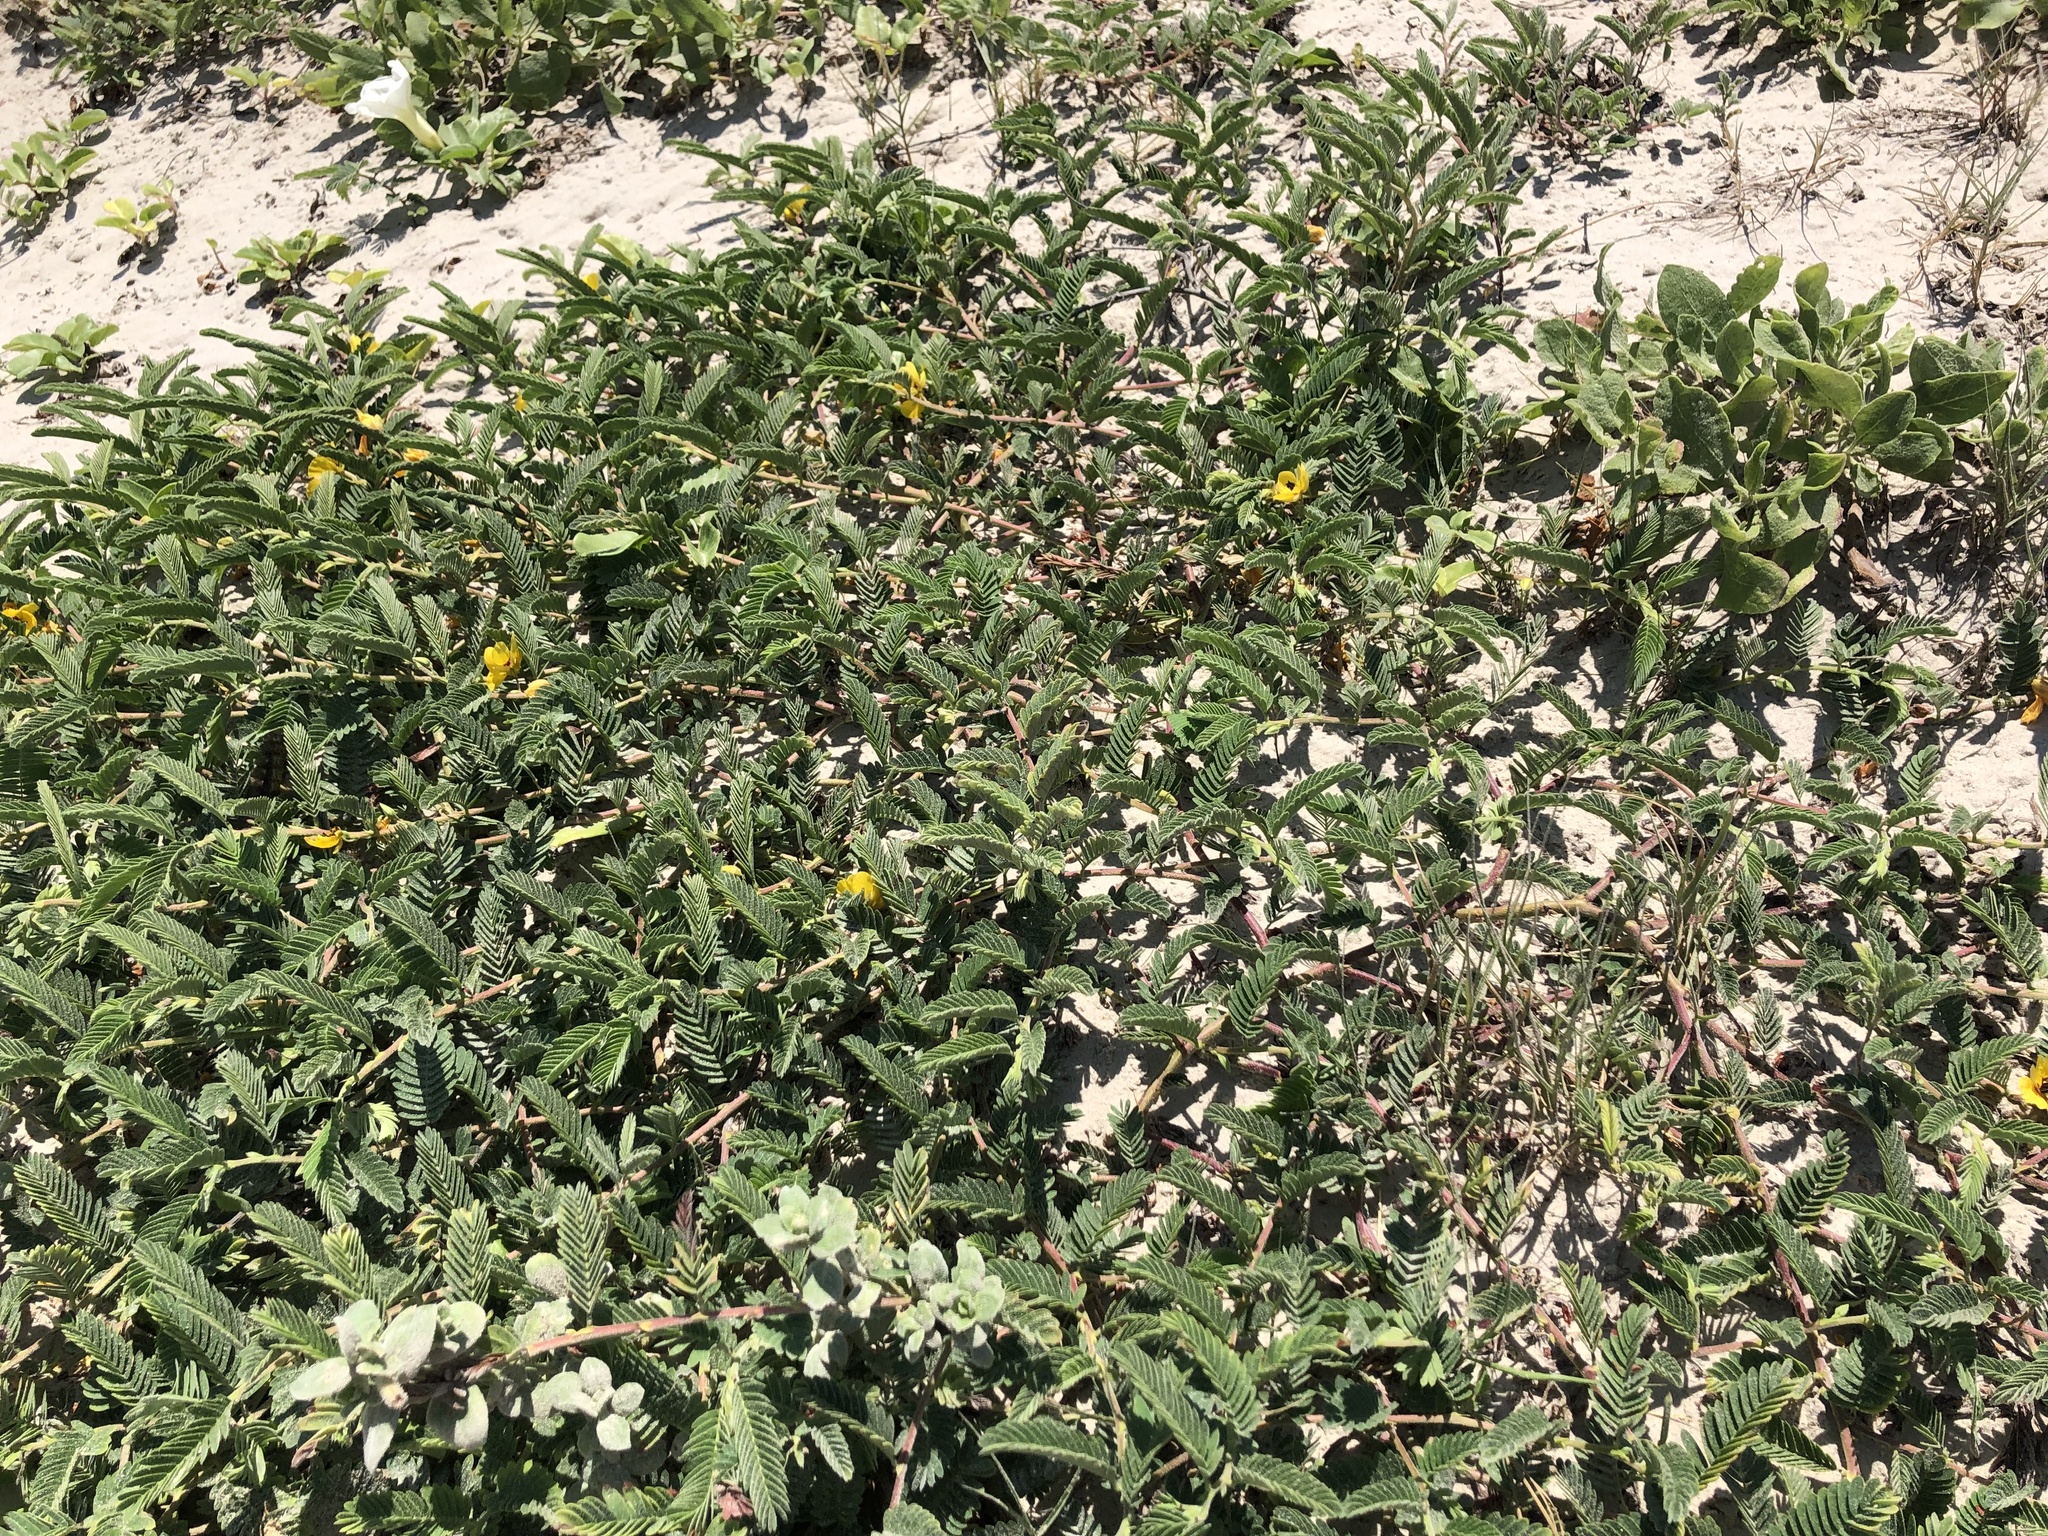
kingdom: Plantae
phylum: Tracheophyta
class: Magnoliopsida
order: Fabales
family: Fabaceae
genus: Chamaecrista
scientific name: Chamaecrista fasciculata
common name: Golden cassia
